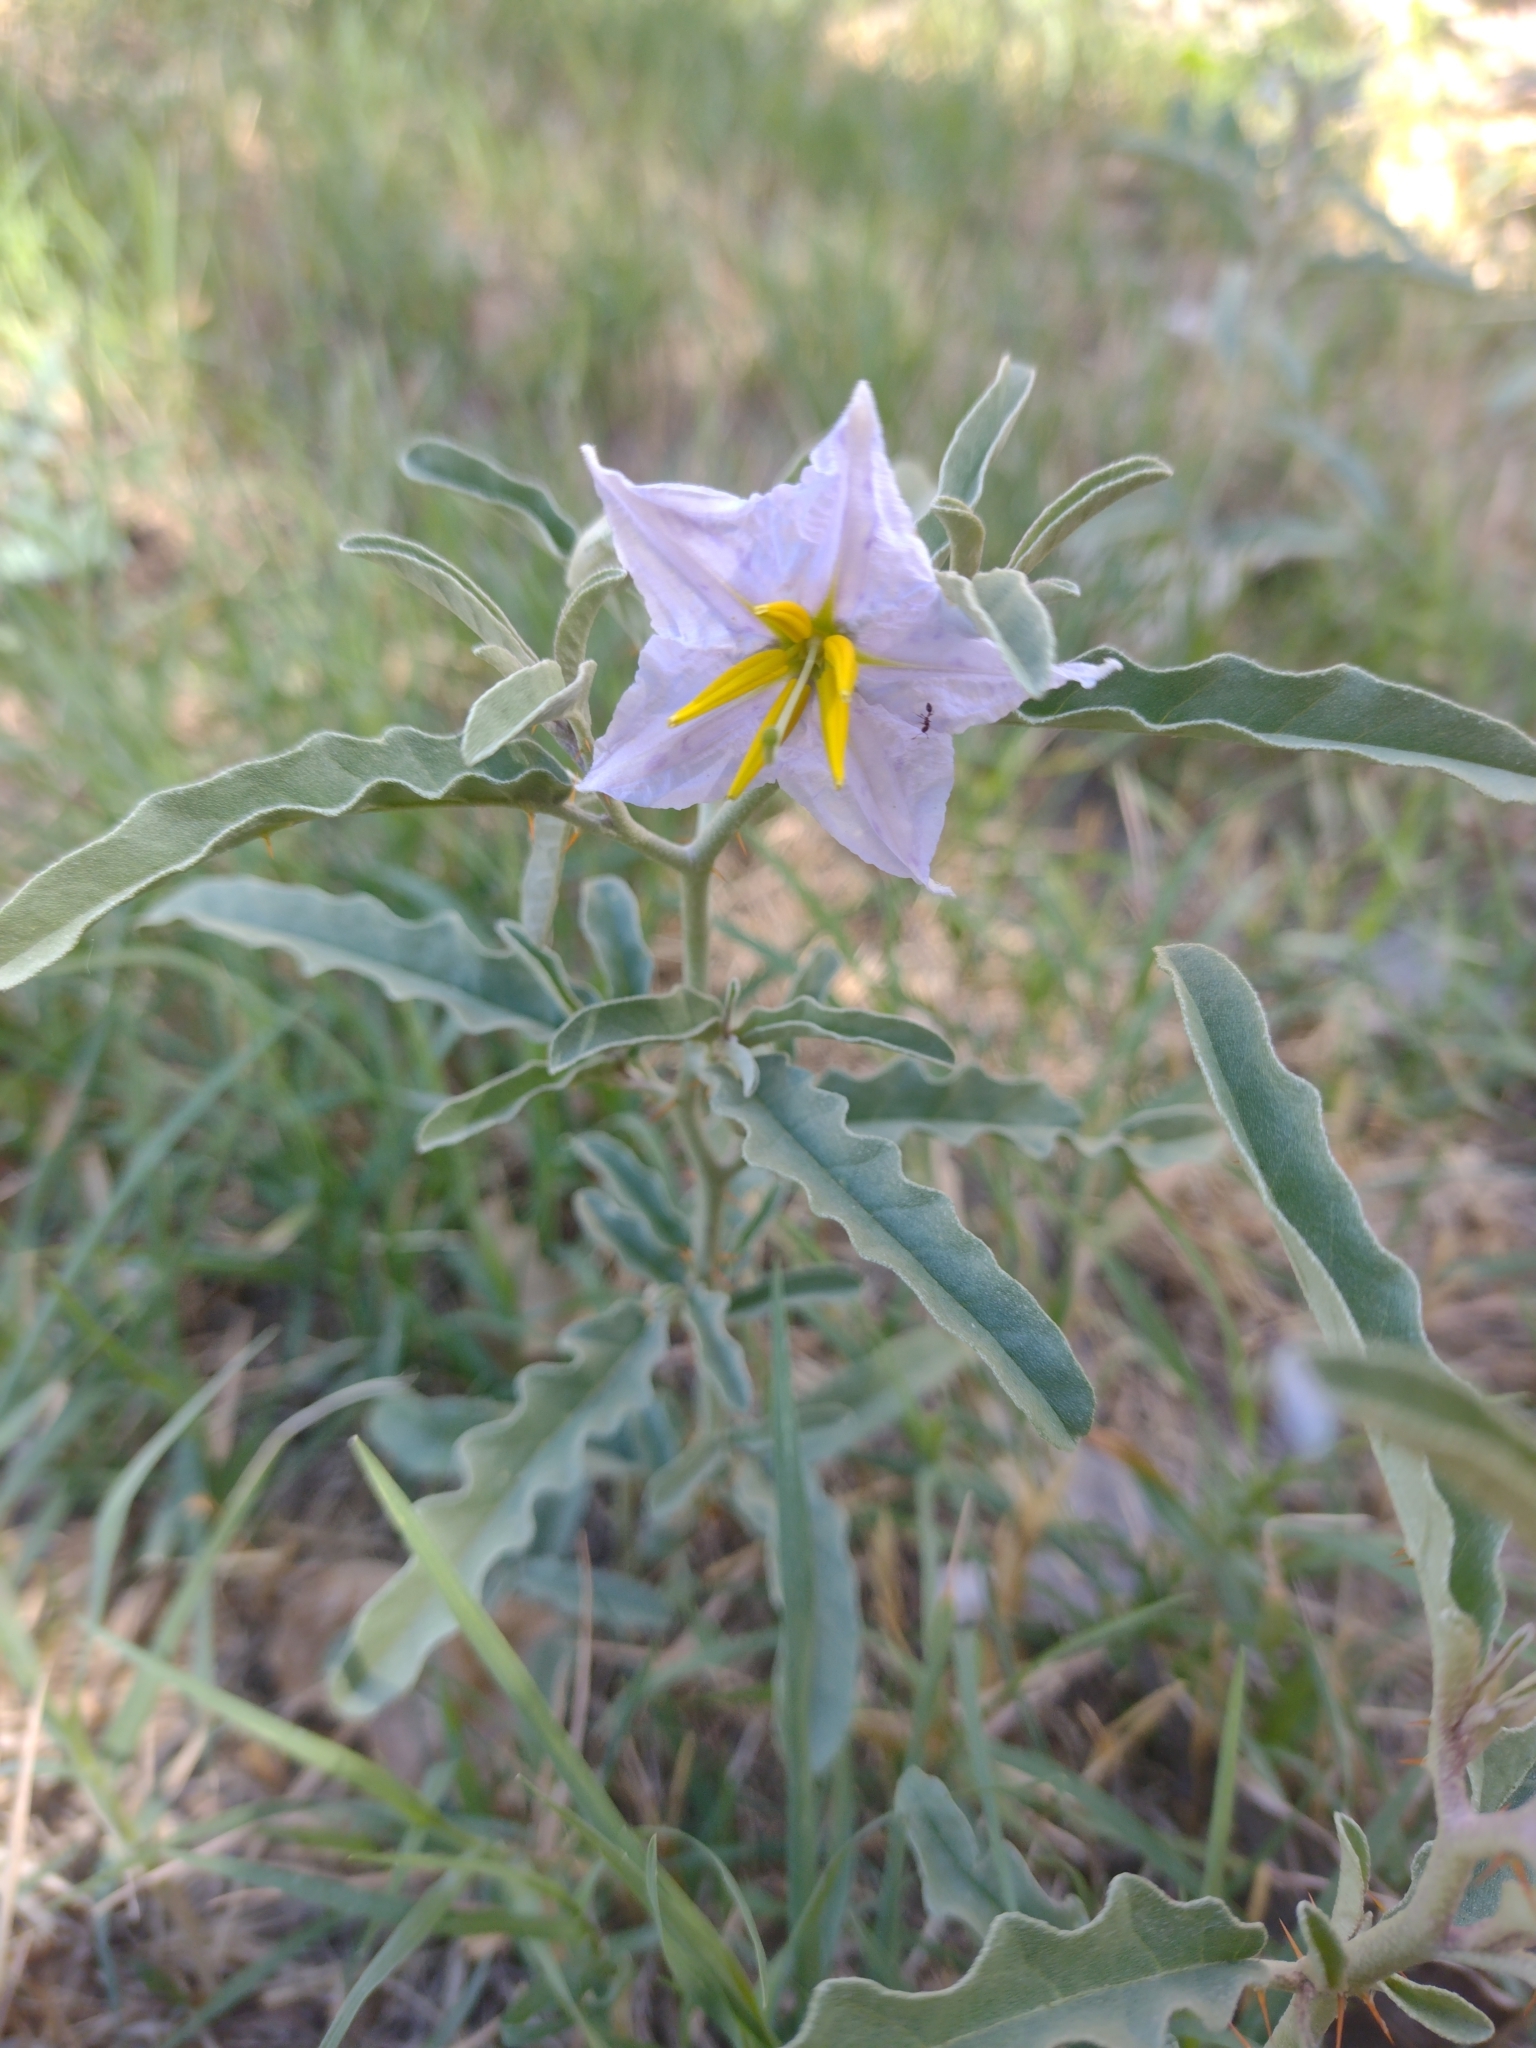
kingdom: Plantae
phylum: Tracheophyta
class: Magnoliopsida
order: Solanales
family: Solanaceae
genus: Solanum
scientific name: Solanum elaeagnifolium
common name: Silverleaf nightshade
